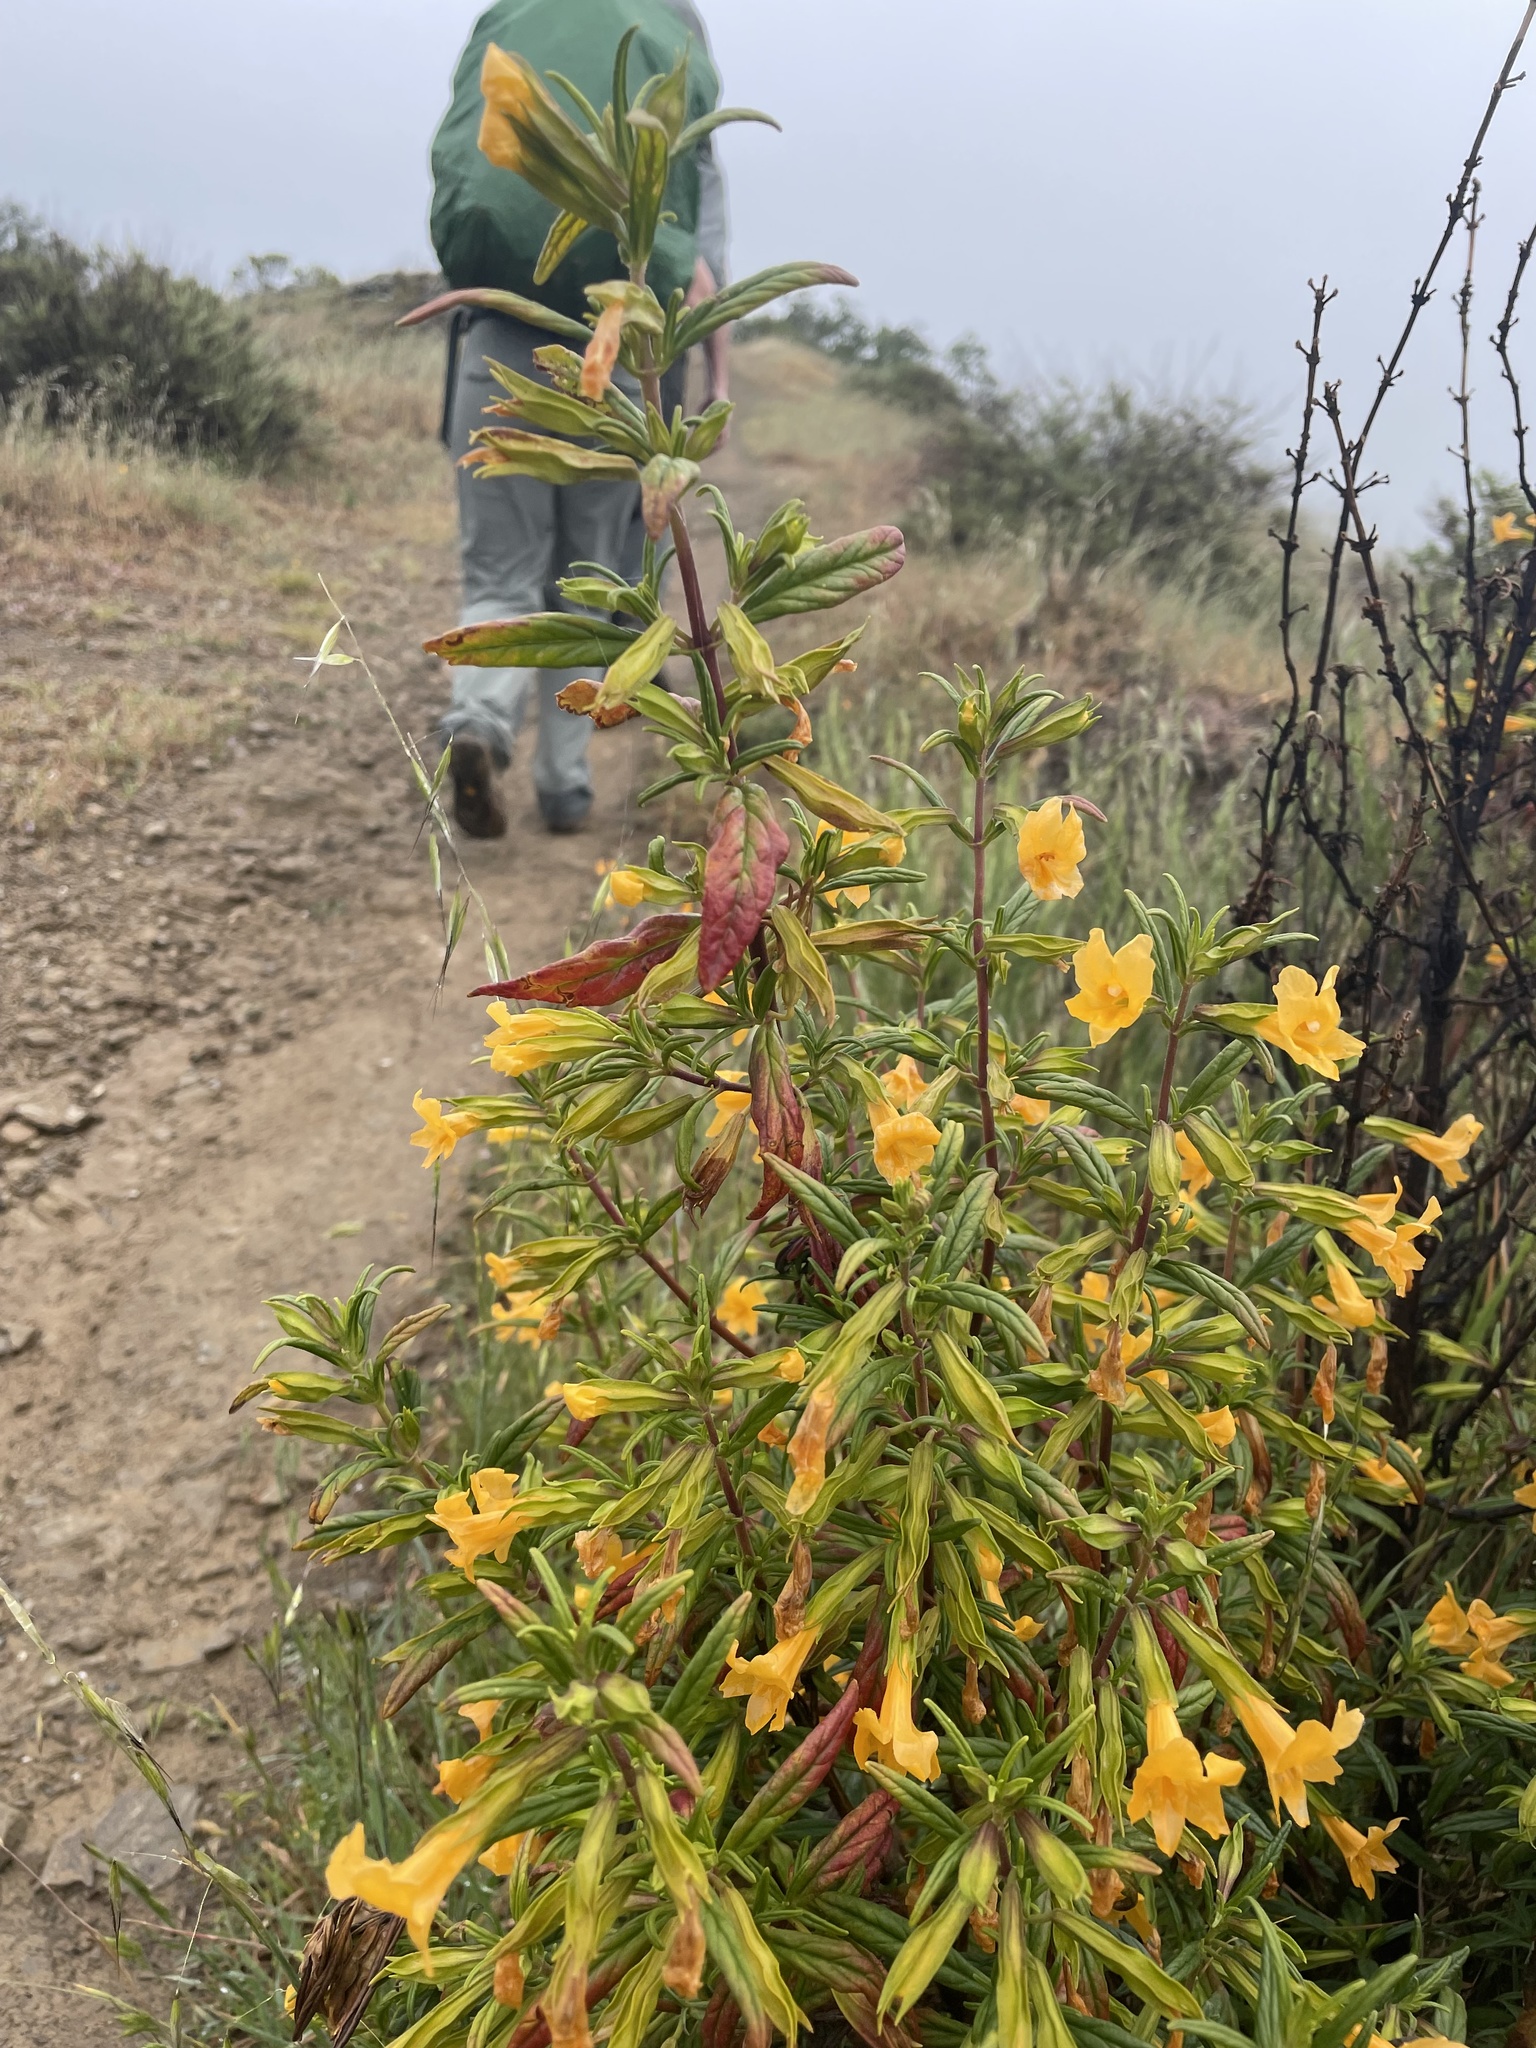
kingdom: Plantae
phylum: Tracheophyta
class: Magnoliopsida
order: Lamiales
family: Phrymaceae
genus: Diplacus
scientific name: Diplacus aurantiacus
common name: Bush monkey-flower
